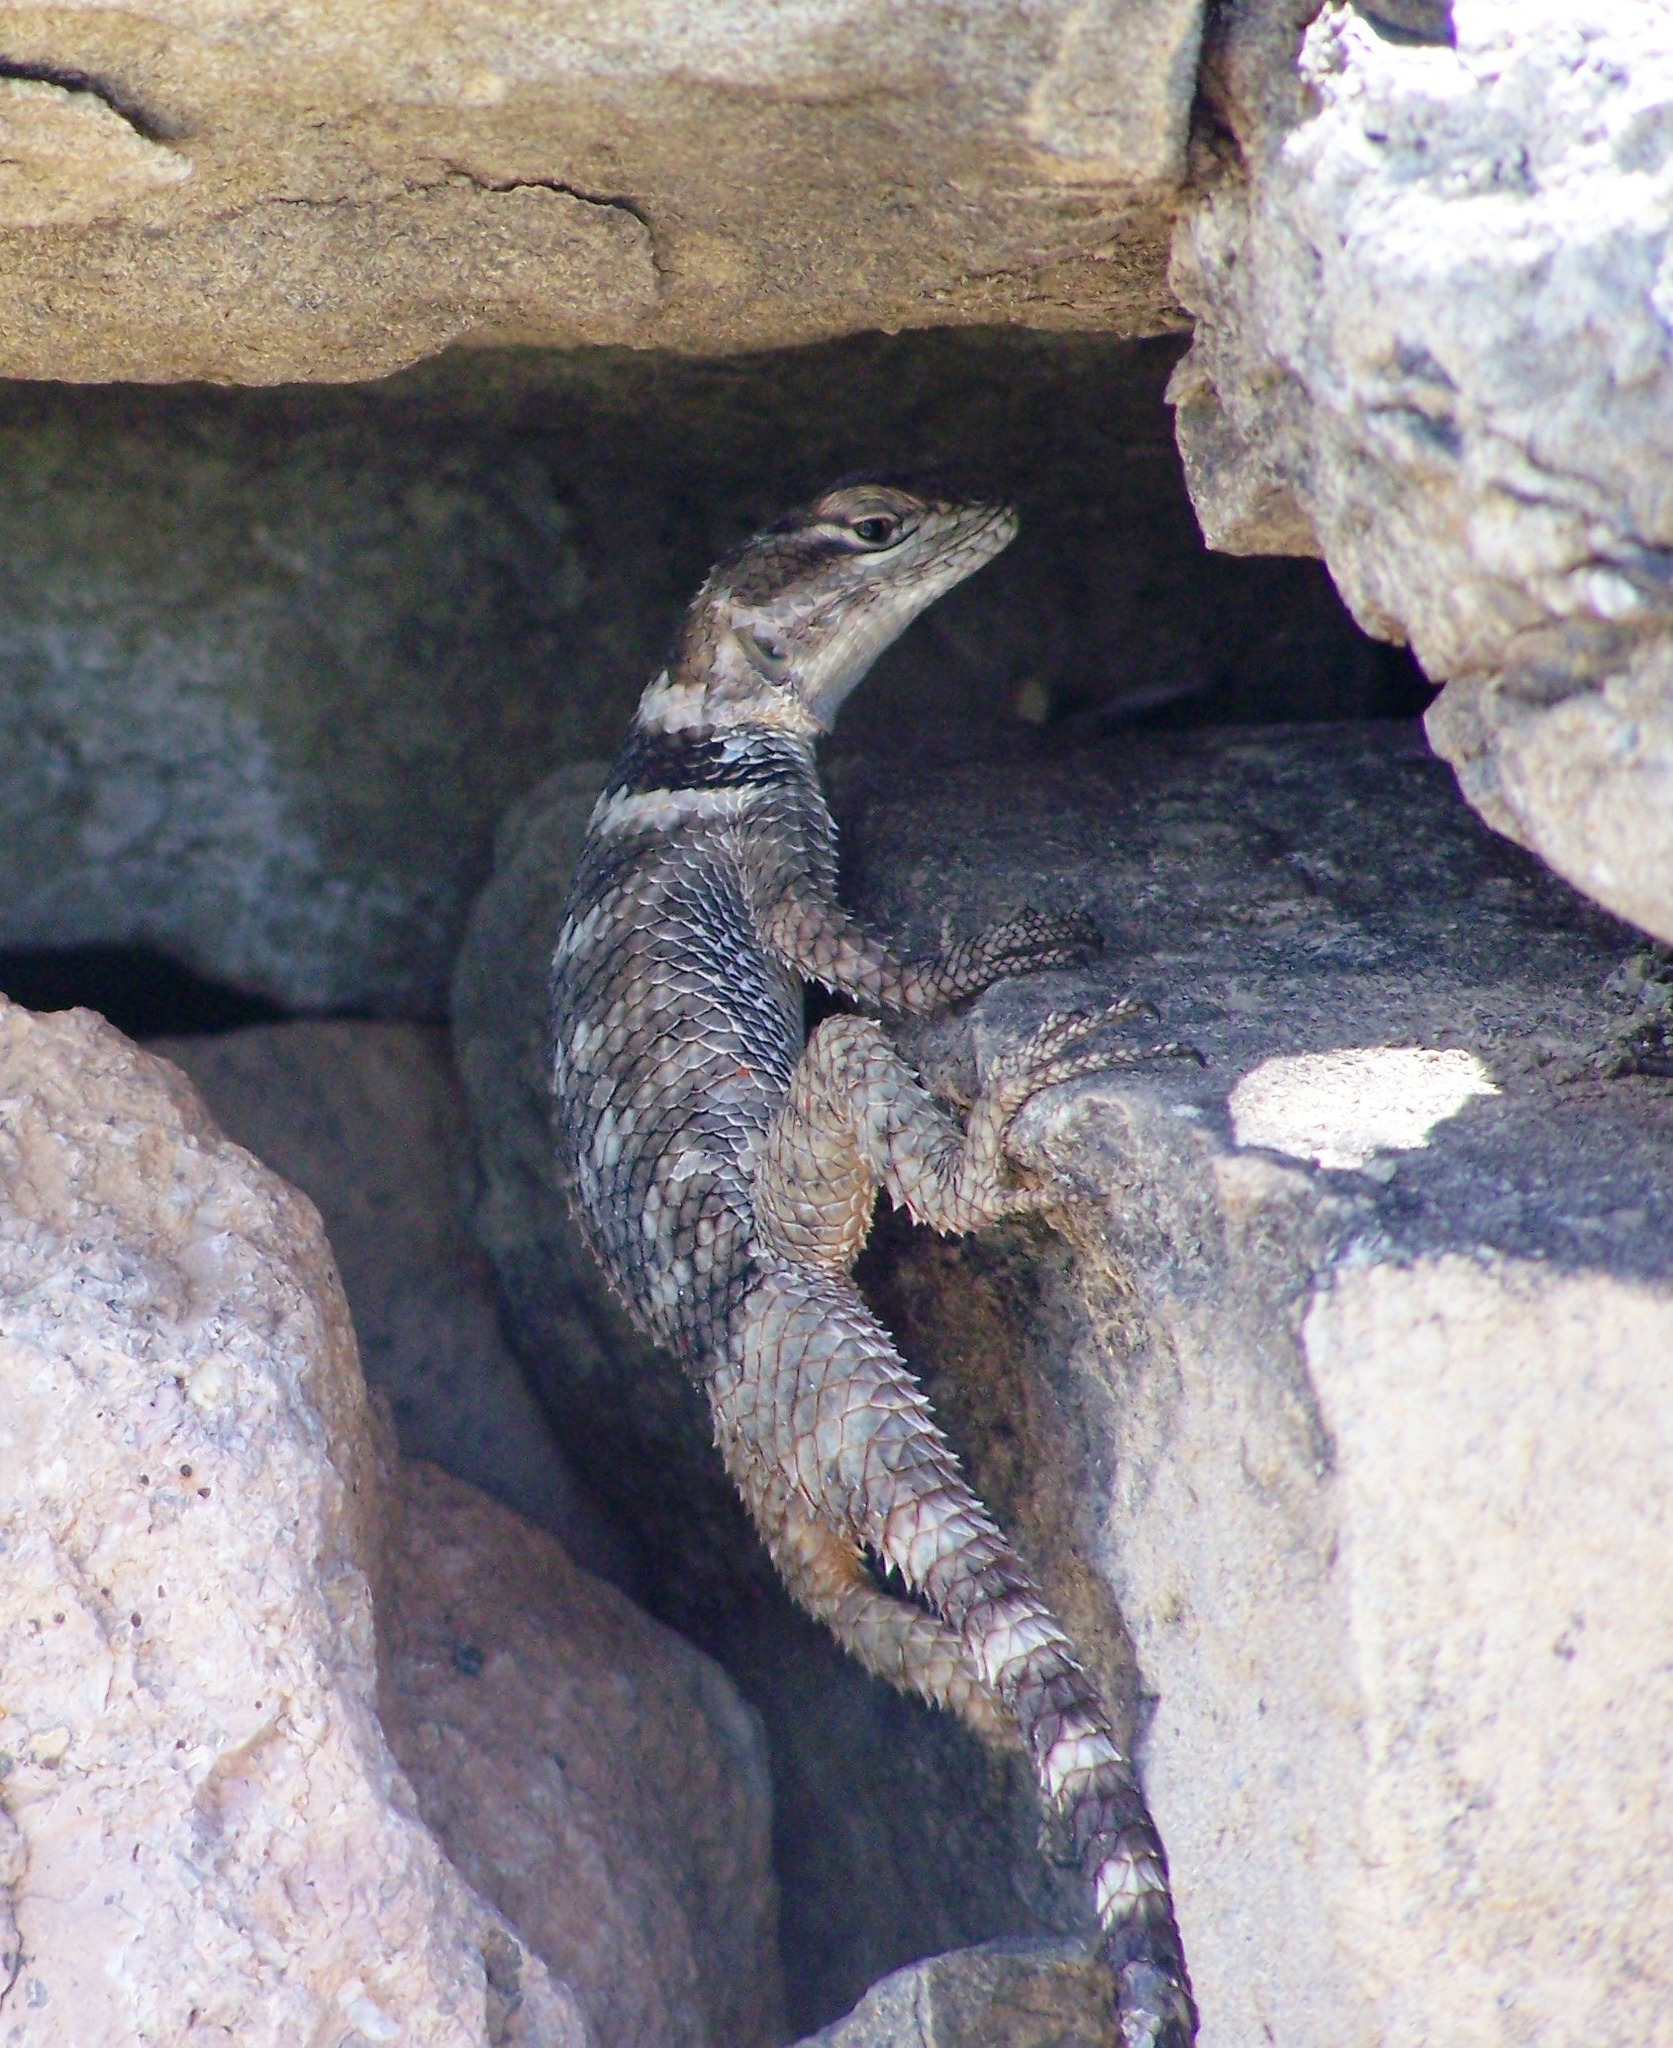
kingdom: Animalia
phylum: Chordata
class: Squamata
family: Phrynosomatidae
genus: Sceloporus
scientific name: Sceloporus poinsettii
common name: Crevice spiny lizard
